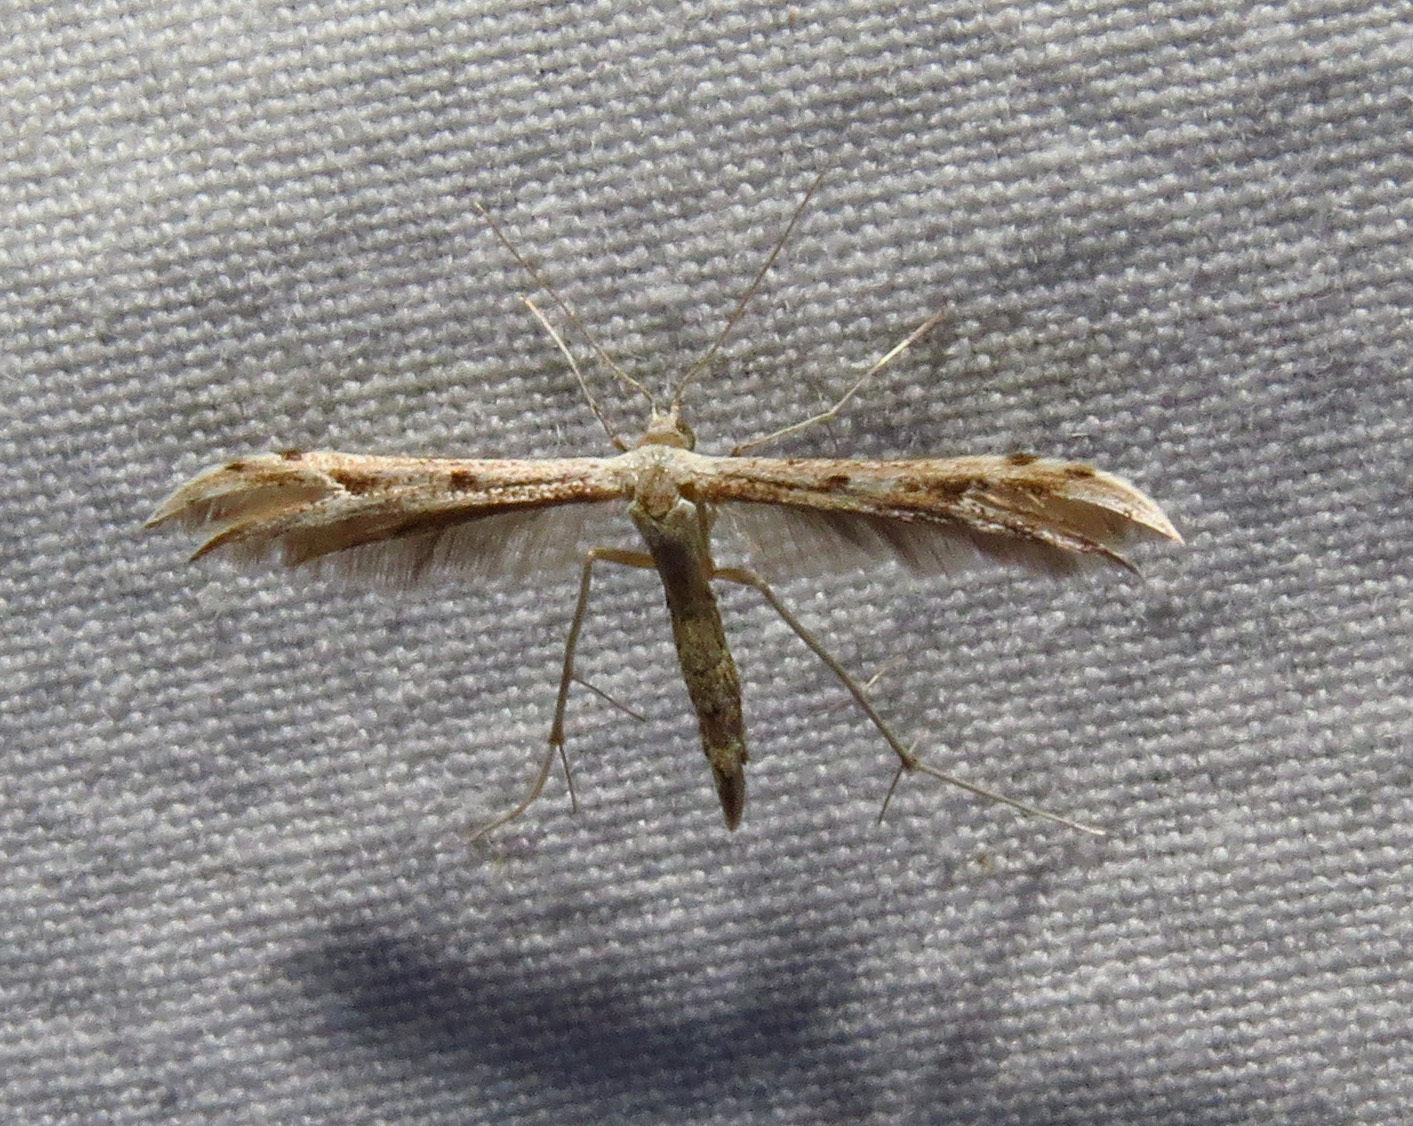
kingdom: Animalia
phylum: Arthropoda
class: Insecta
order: Lepidoptera
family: Pterophoridae
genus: Pselnophorus
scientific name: Pselnophorus belfragei
